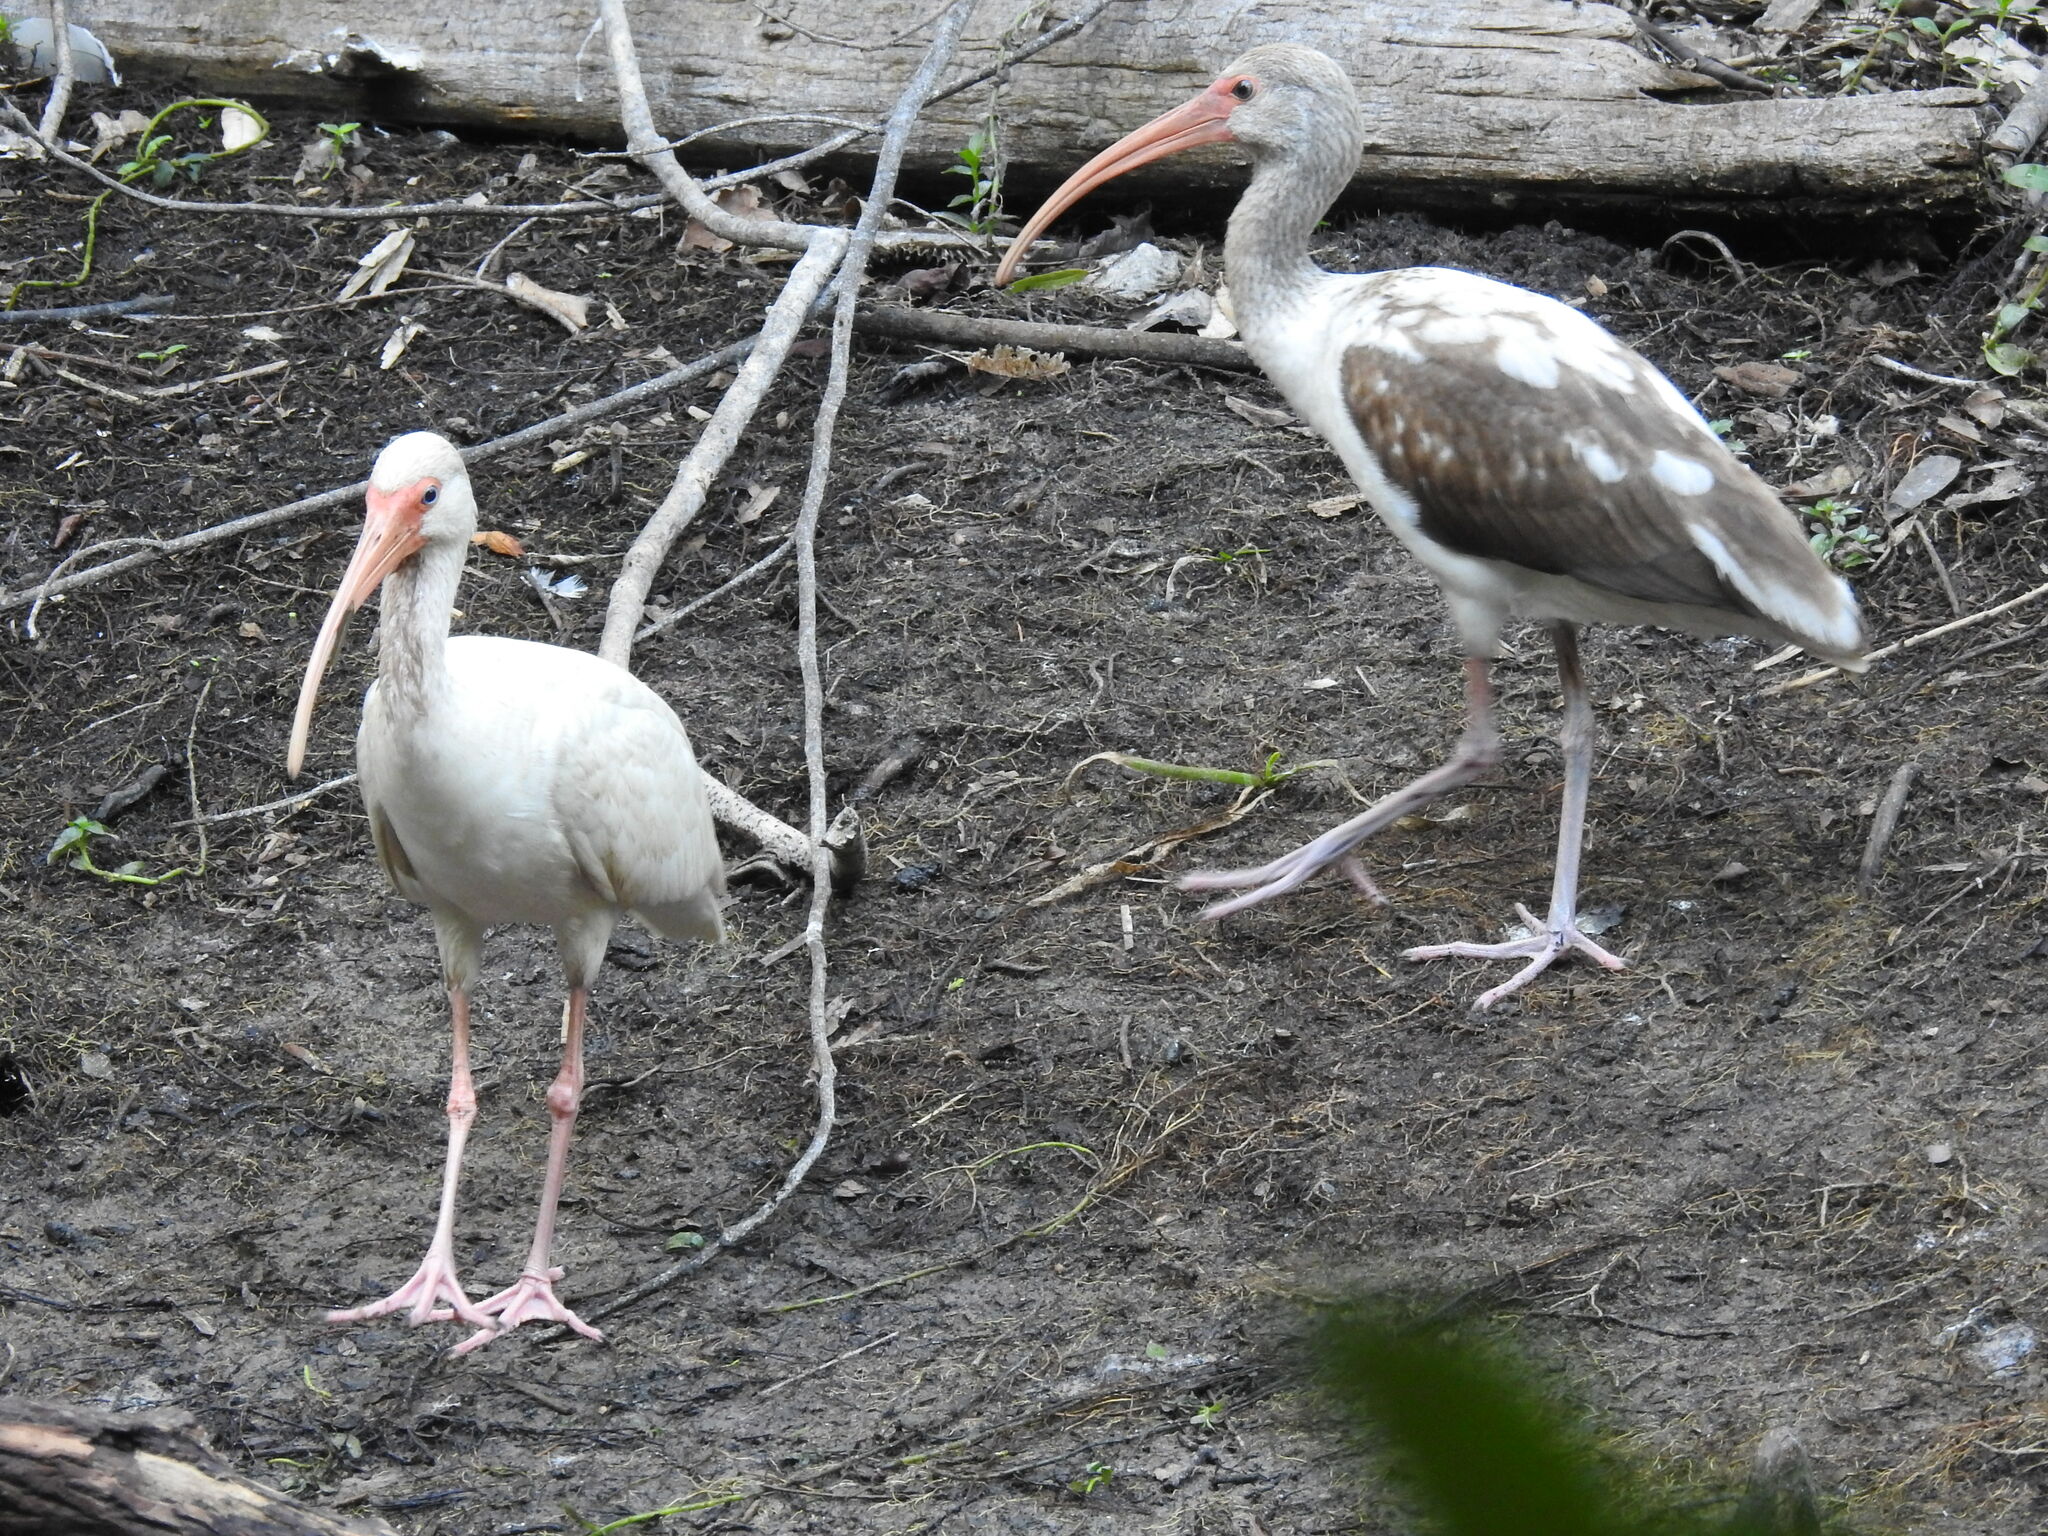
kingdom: Animalia
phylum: Chordata
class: Aves
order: Pelecaniformes
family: Threskiornithidae
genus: Eudocimus
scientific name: Eudocimus albus
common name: White ibis
